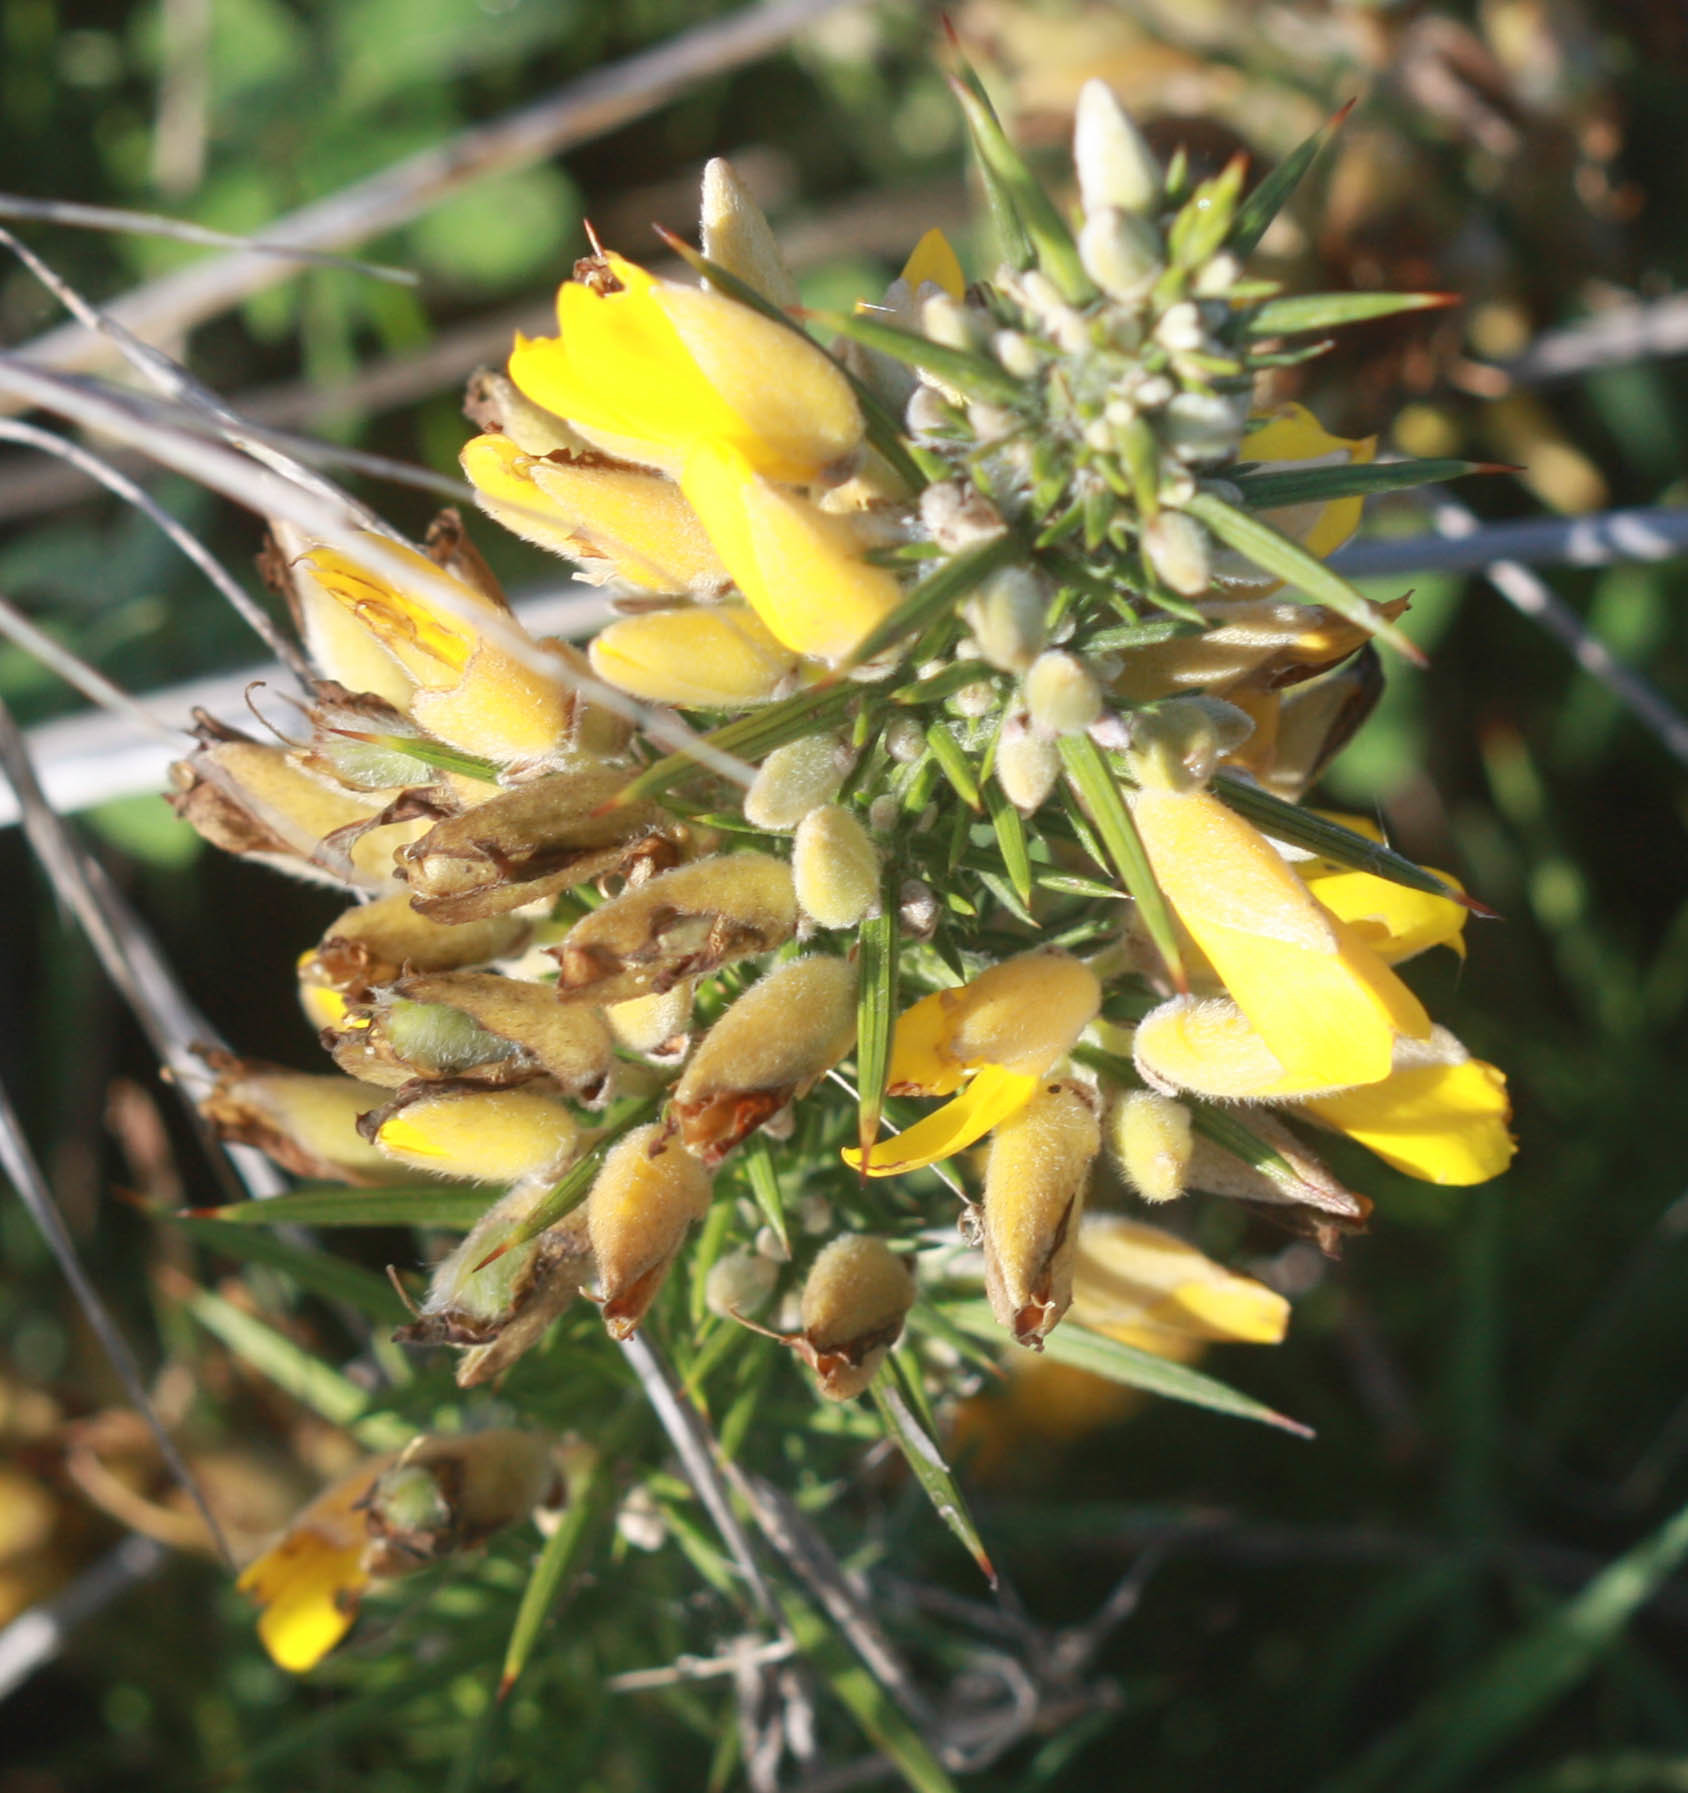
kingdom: Plantae
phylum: Tracheophyta
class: Magnoliopsida
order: Fabales
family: Fabaceae
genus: Ulex
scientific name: Ulex europaeus
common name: Common gorse
